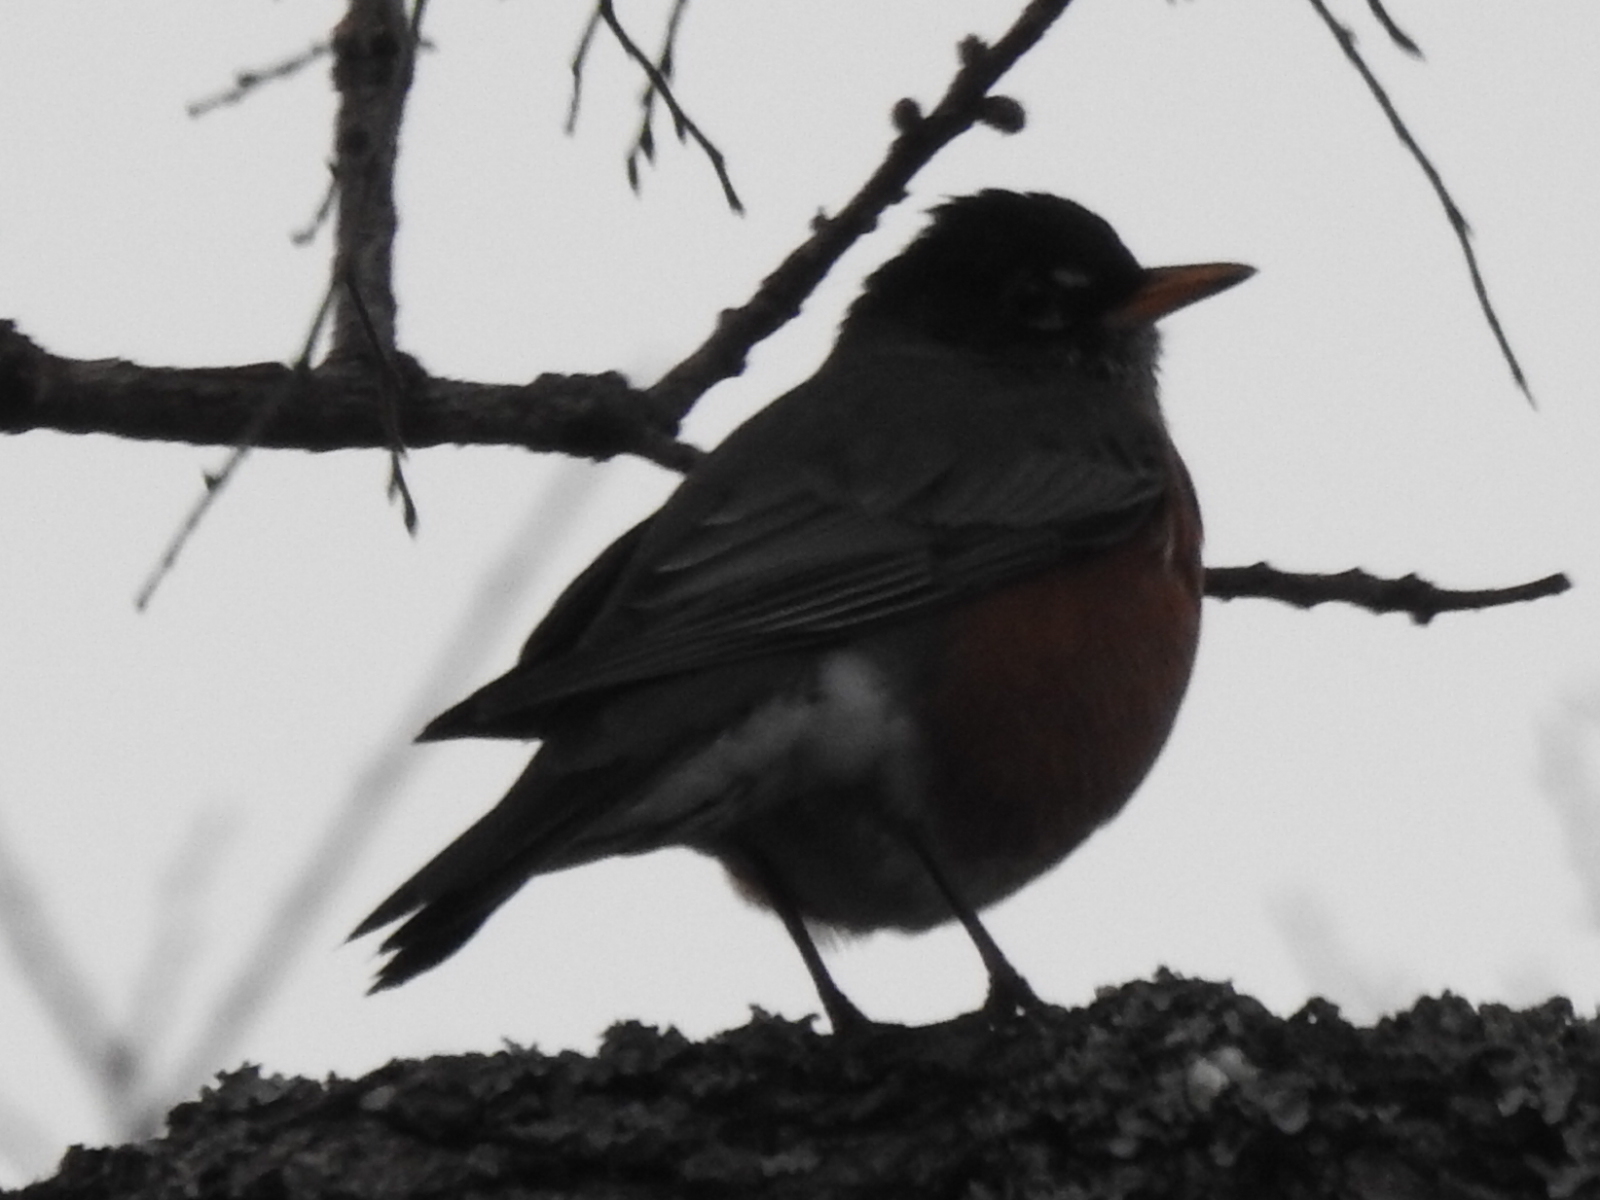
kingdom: Animalia
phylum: Chordata
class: Aves
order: Passeriformes
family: Turdidae
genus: Turdus
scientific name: Turdus migratorius
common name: American robin
